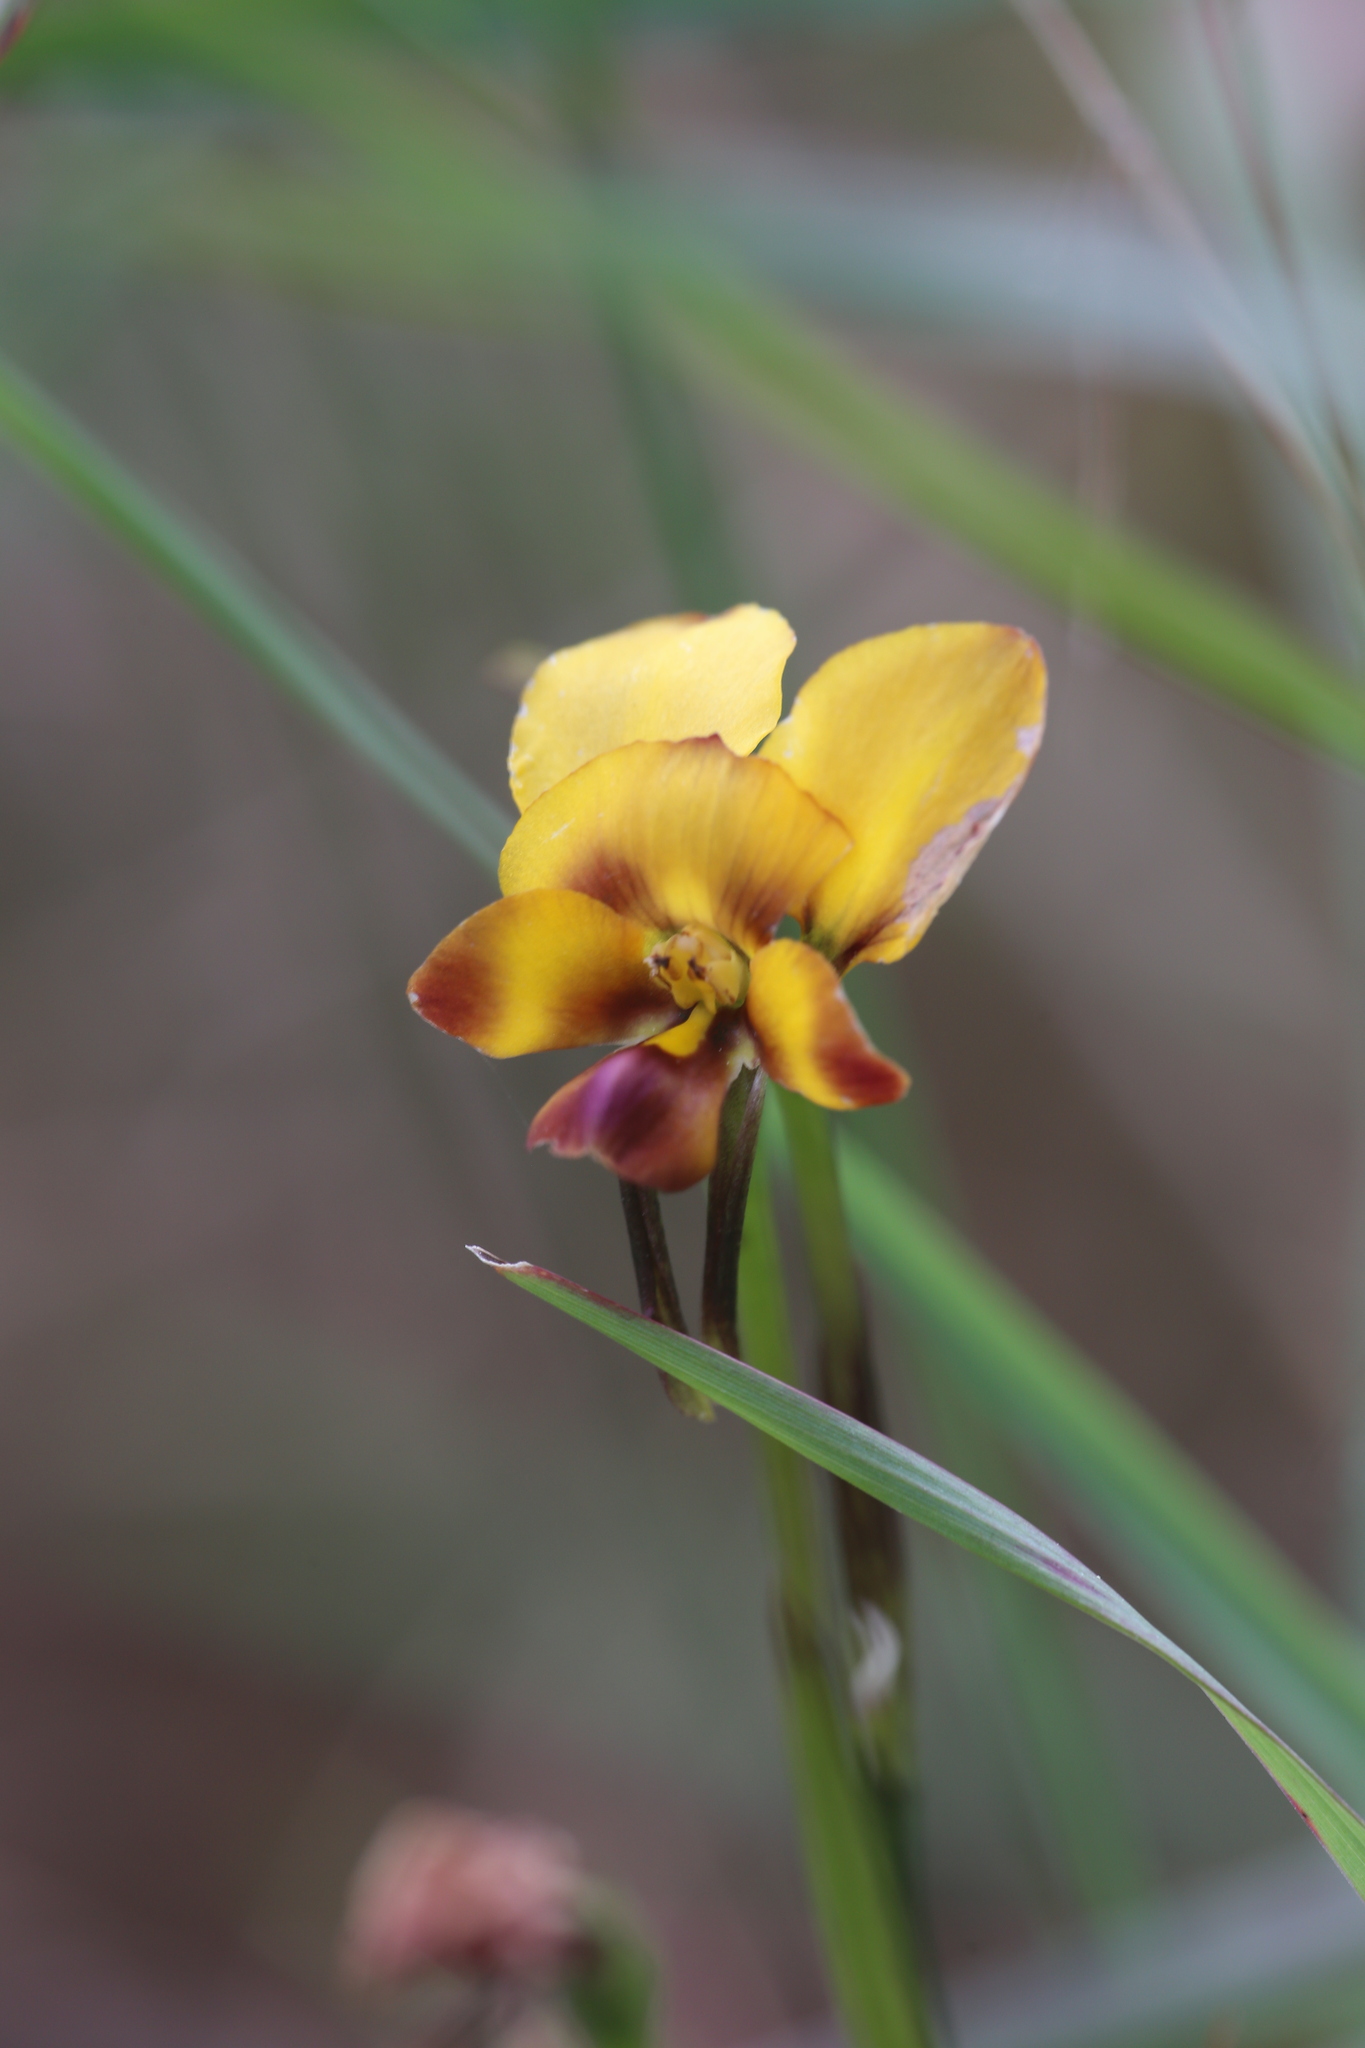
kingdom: Plantae
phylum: Tracheophyta
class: Liliopsida
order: Asparagales
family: Orchidaceae
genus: Diuris
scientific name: Diuris magnifica
